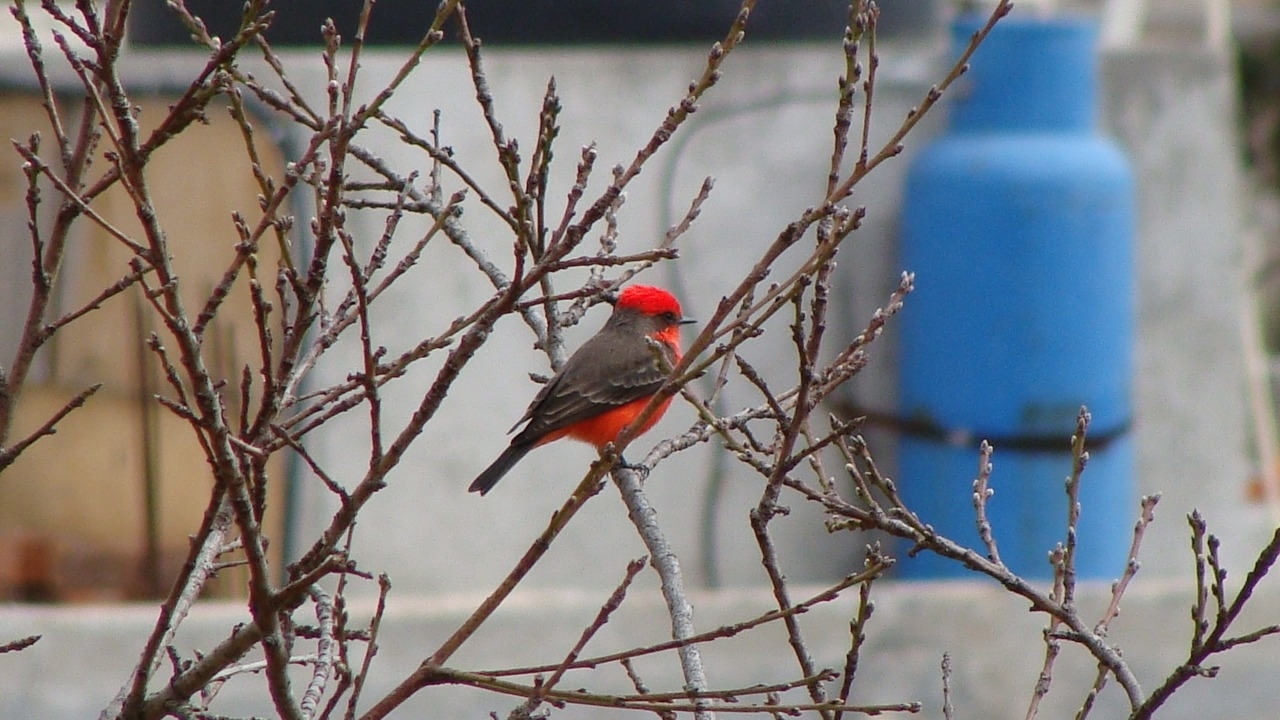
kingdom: Animalia
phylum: Chordata
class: Aves
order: Passeriformes
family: Tyrannidae
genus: Pyrocephalus
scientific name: Pyrocephalus rubinus
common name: Vermilion flycatcher
